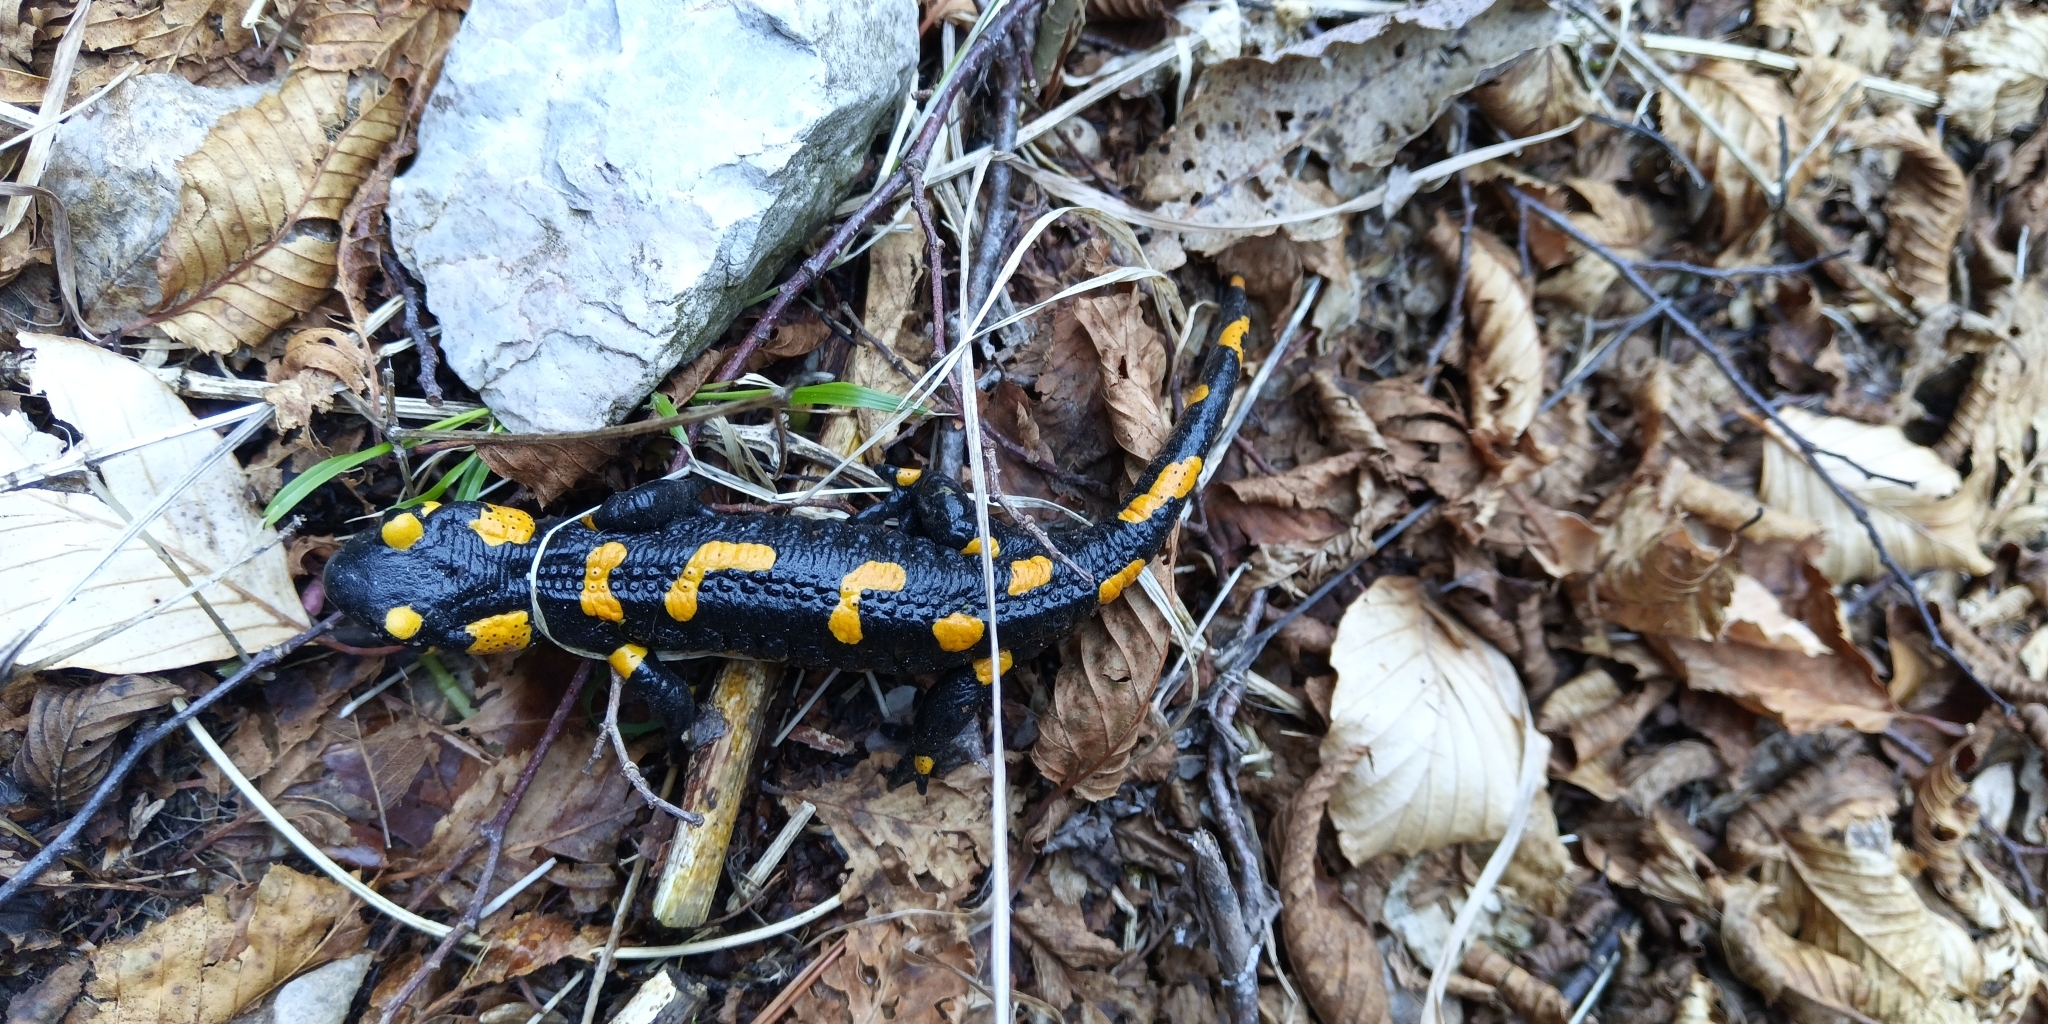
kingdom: Animalia
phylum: Chordata
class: Amphibia
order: Caudata
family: Salamandridae
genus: Salamandra
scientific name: Salamandra salamandra
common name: Fire salamander
